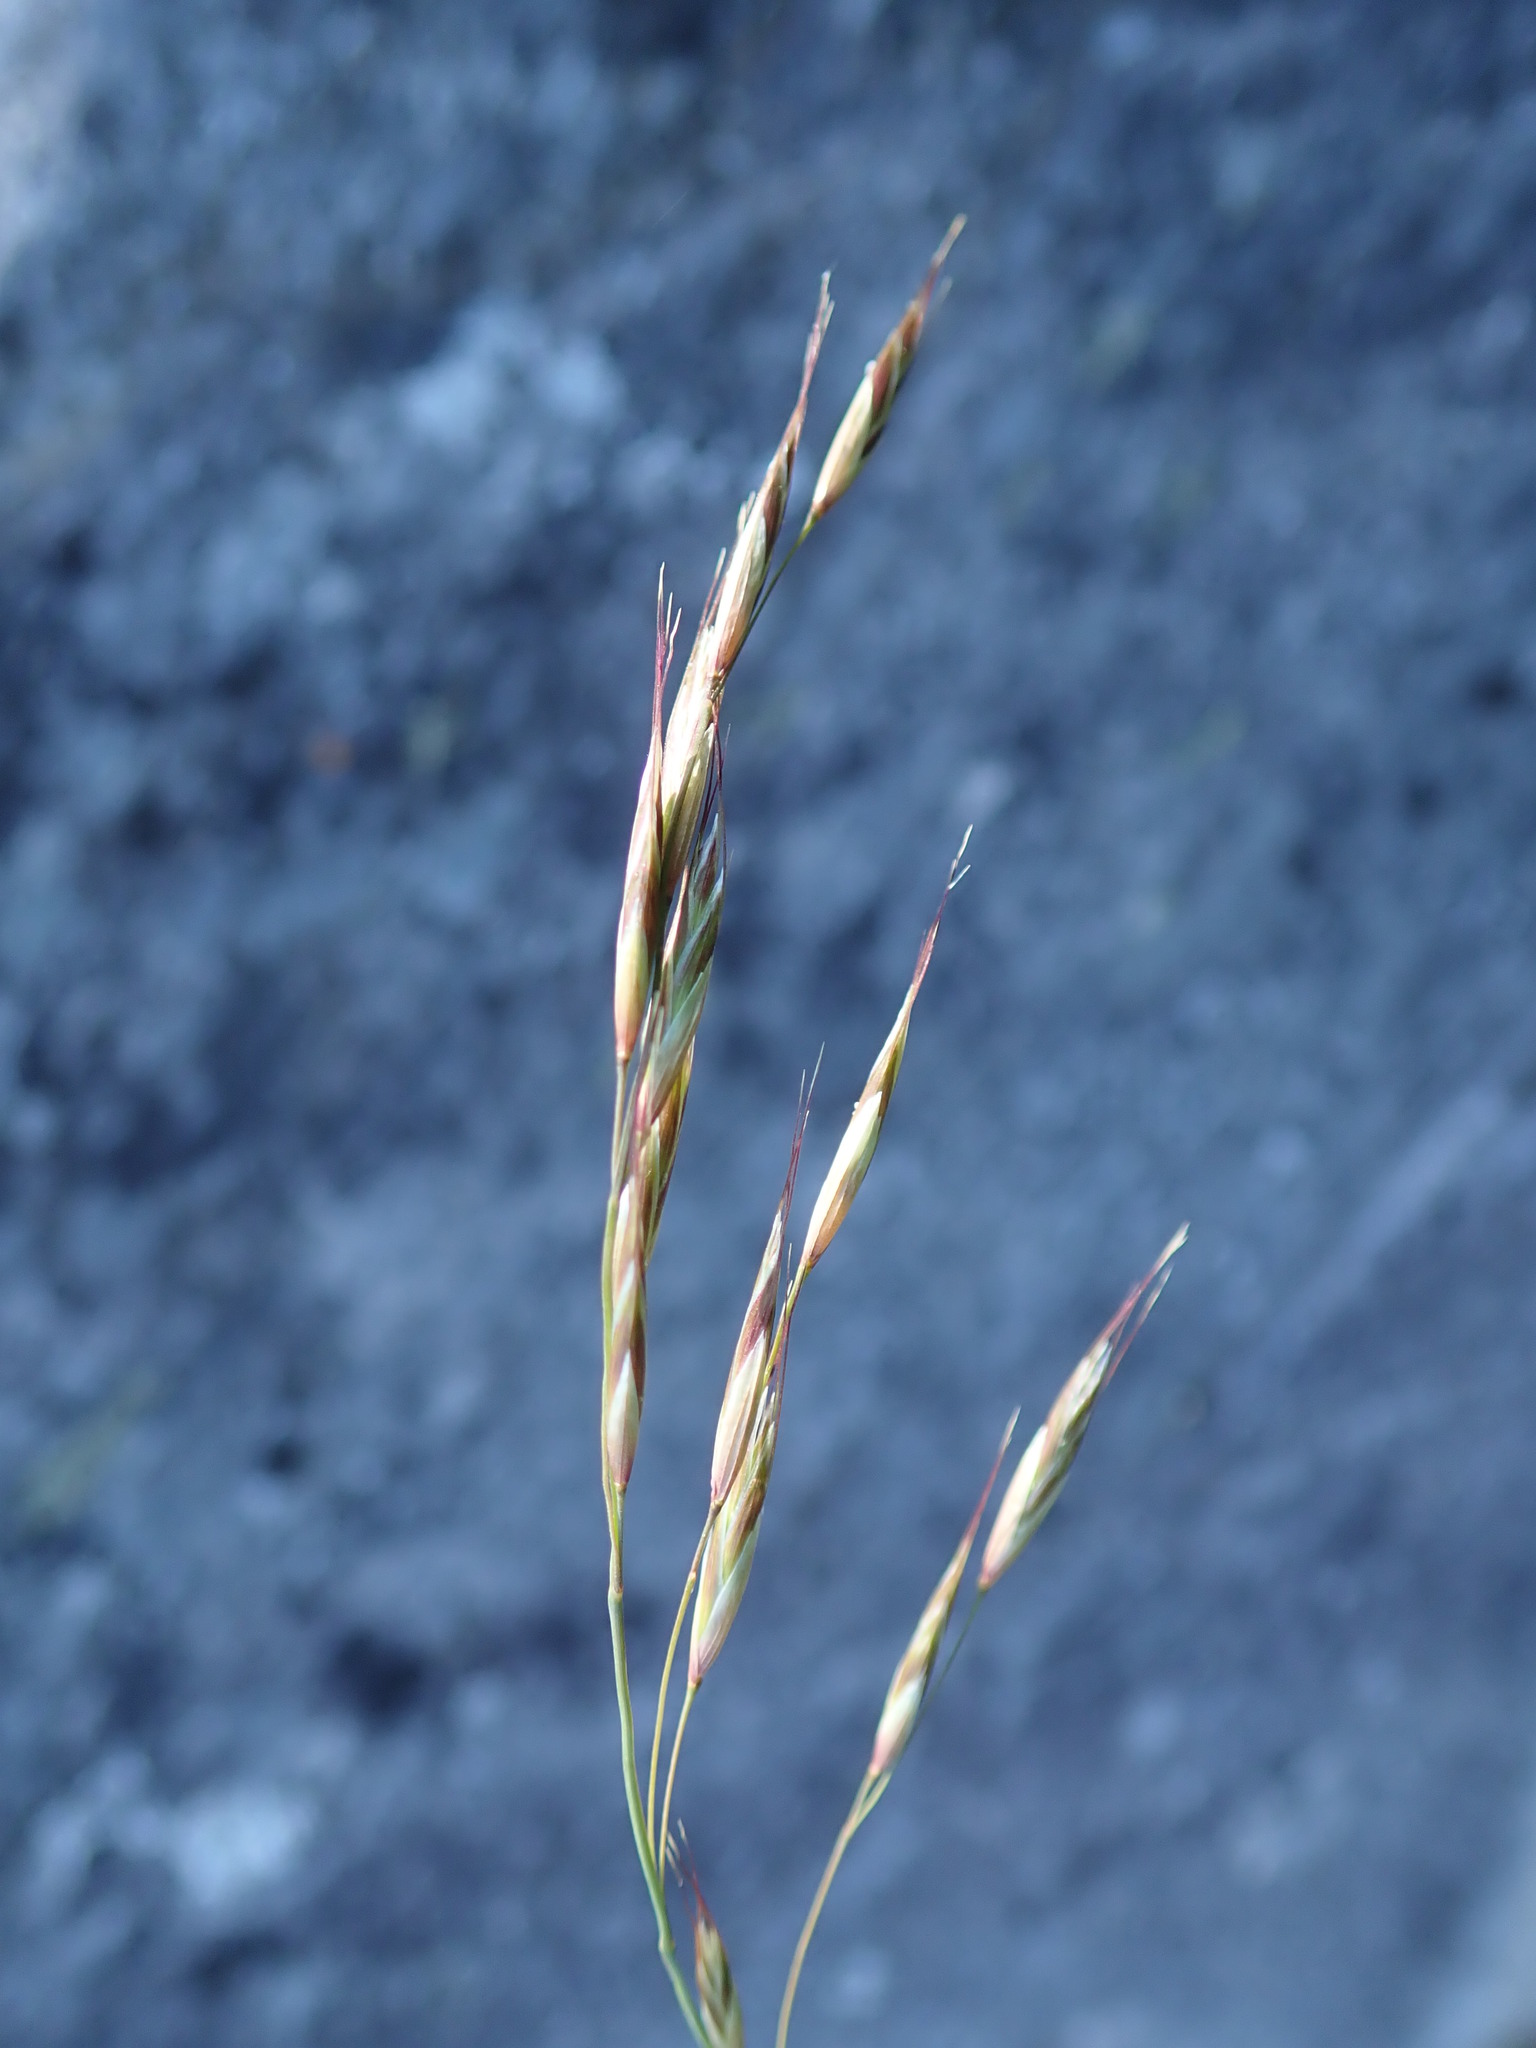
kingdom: Plantae
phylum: Tracheophyta
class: Liliopsida
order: Poales
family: Poaceae
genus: Schizachne
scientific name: Schizachne purpurascens
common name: False melic
